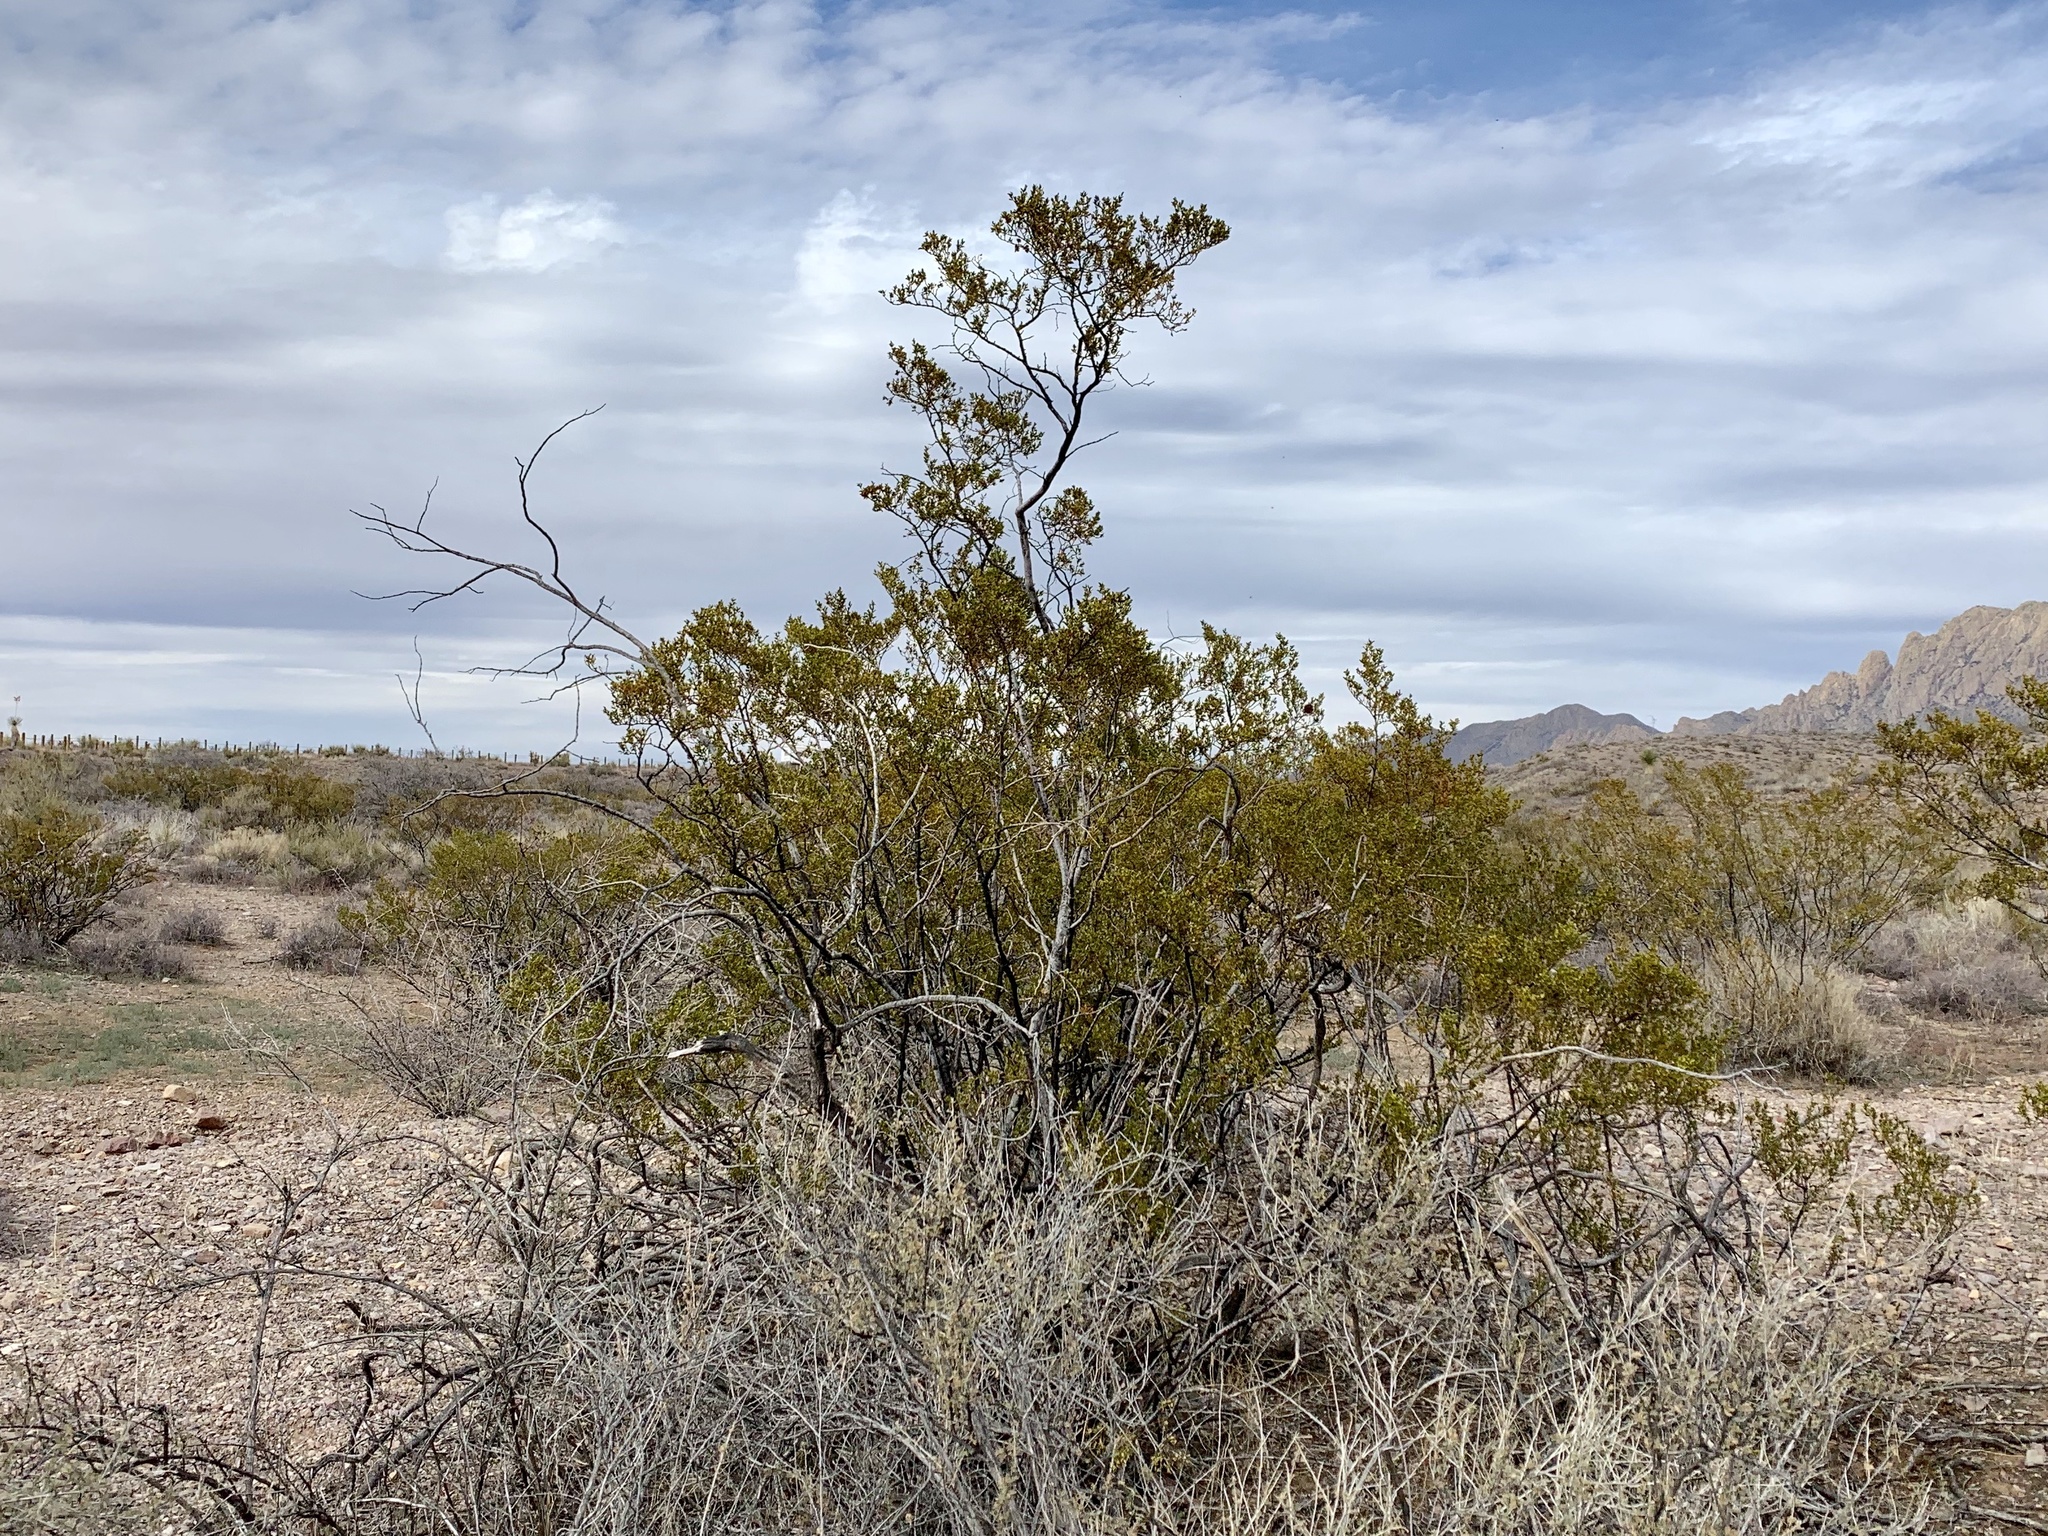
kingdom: Plantae
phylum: Tracheophyta
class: Magnoliopsida
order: Zygophyllales
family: Zygophyllaceae
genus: Larrea
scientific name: Larrea tridentata
